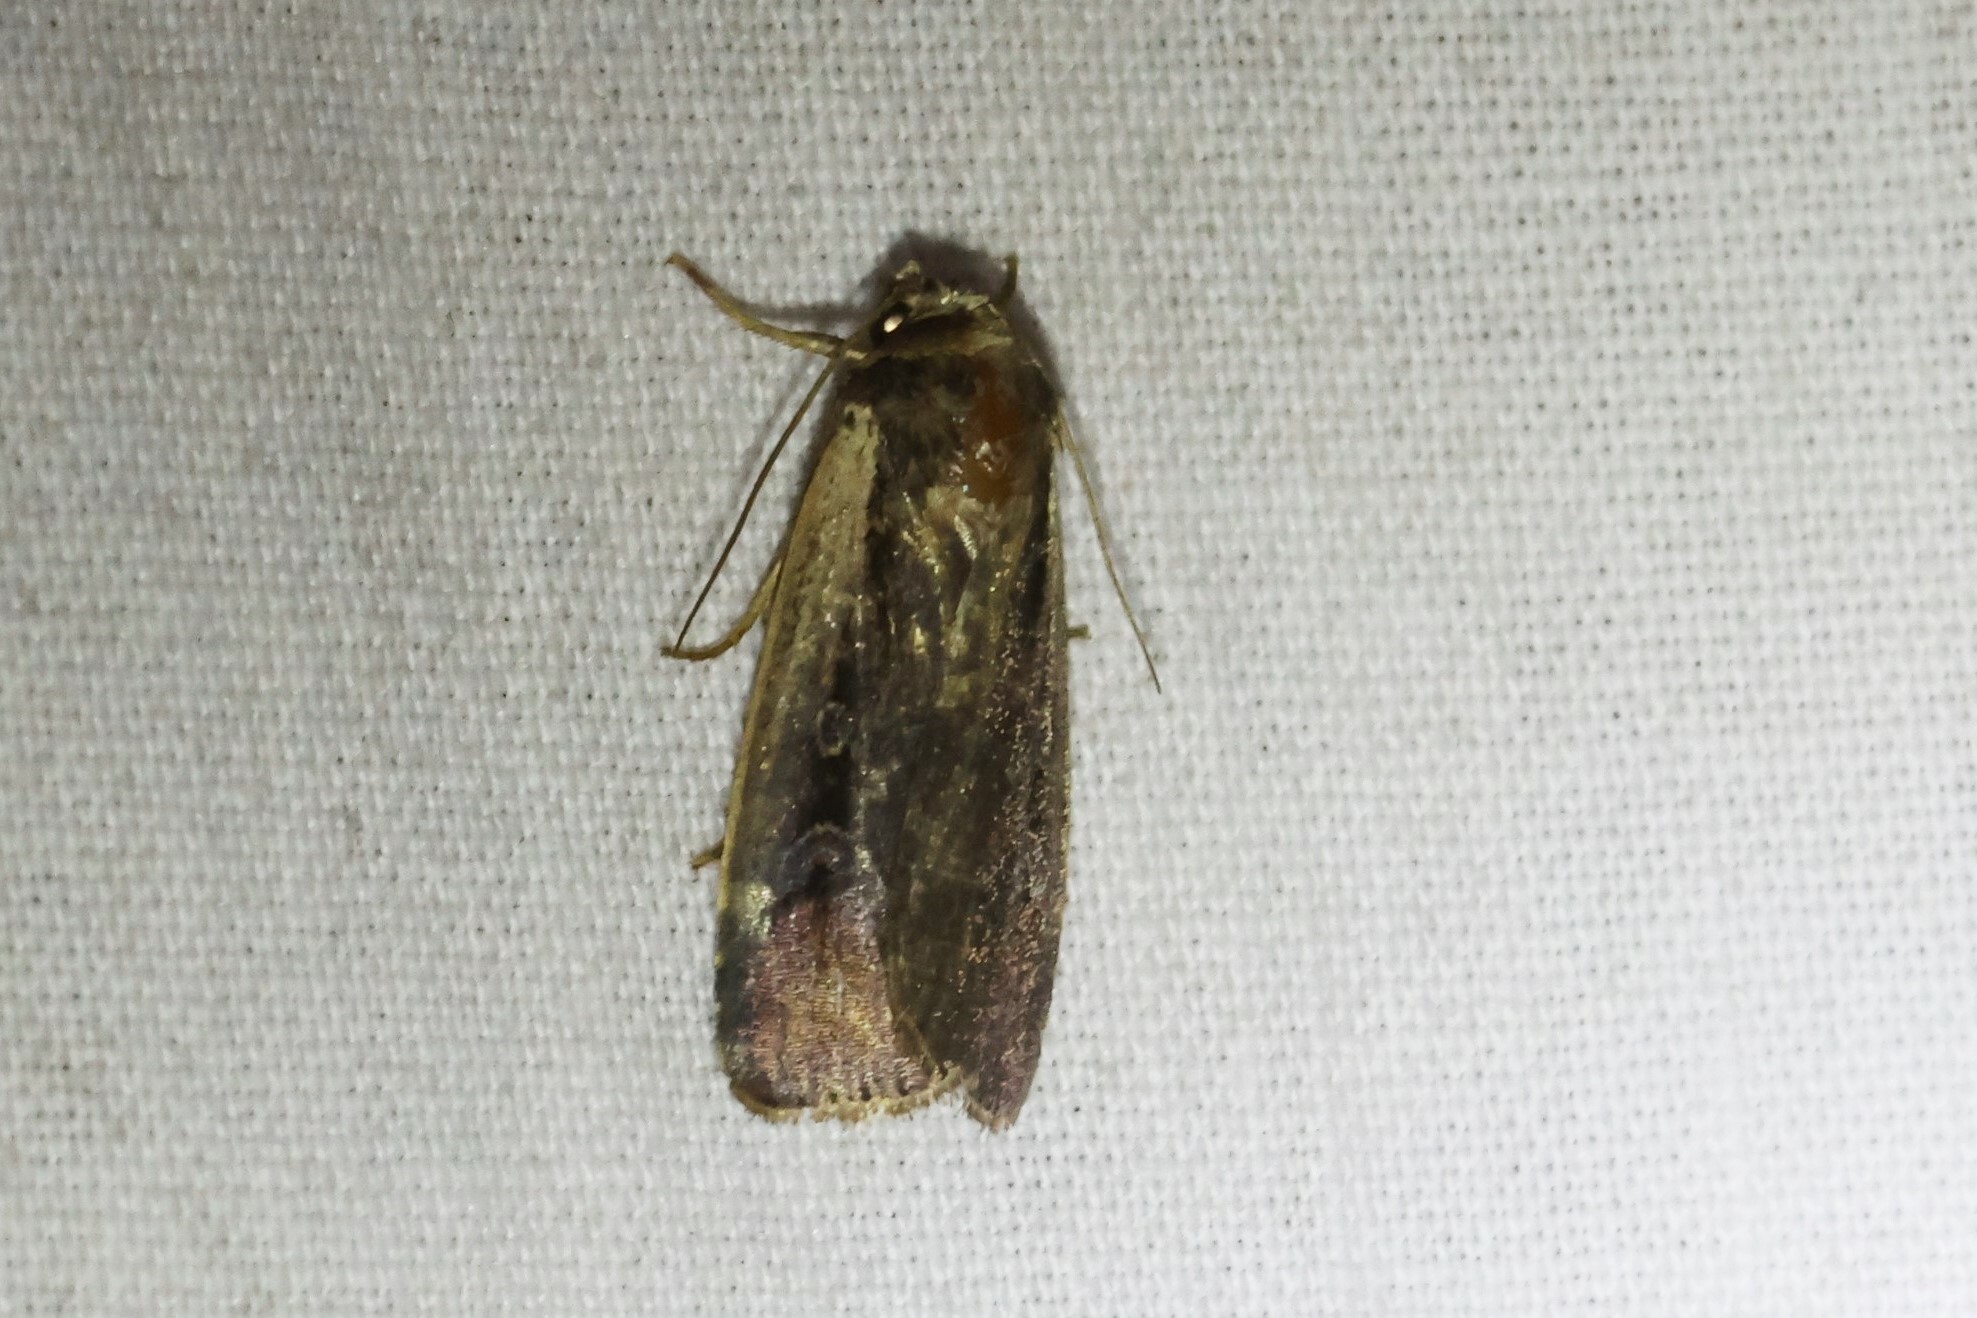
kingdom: Animalia
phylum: Arthropoda
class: Insecta
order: Lepidoptera
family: Noctuidae
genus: Ochropleura
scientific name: Ochropleura implecta
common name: Flame-shouldered dart
